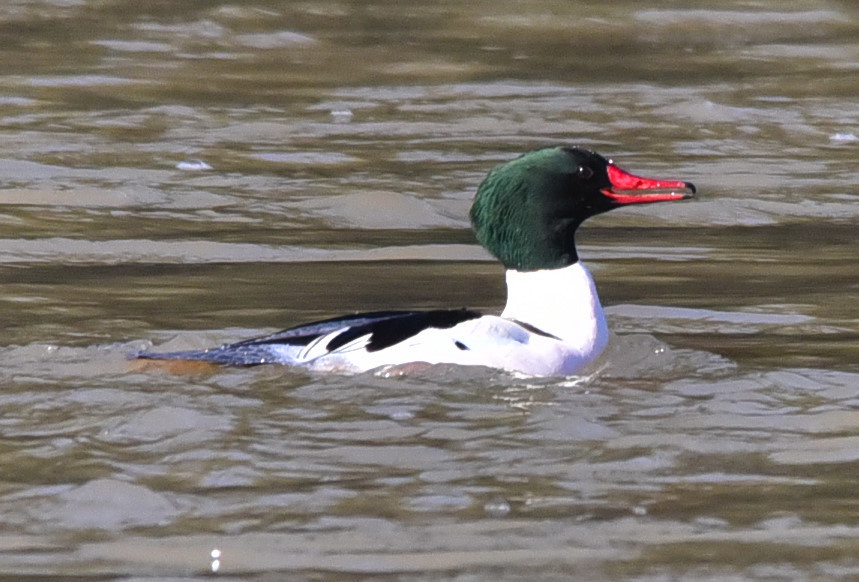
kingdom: Animalia
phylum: Chordata
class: Aves
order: Anseriformes
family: Anatidae
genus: Mergus
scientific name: Mergus merganser
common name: Common merganser
